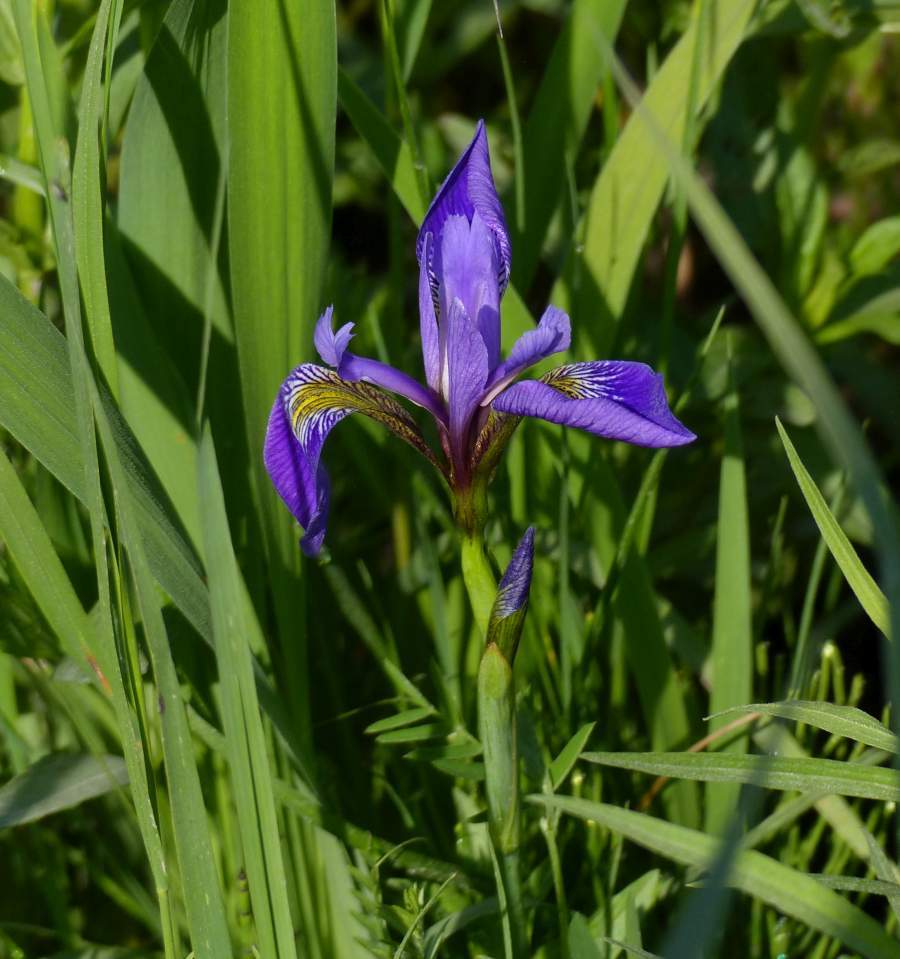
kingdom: Plantae
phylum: Tracheophyta
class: Liliopsida
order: Asparagales
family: Iridaceae
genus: Iris
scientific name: Iris versicolor
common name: Purple iris
